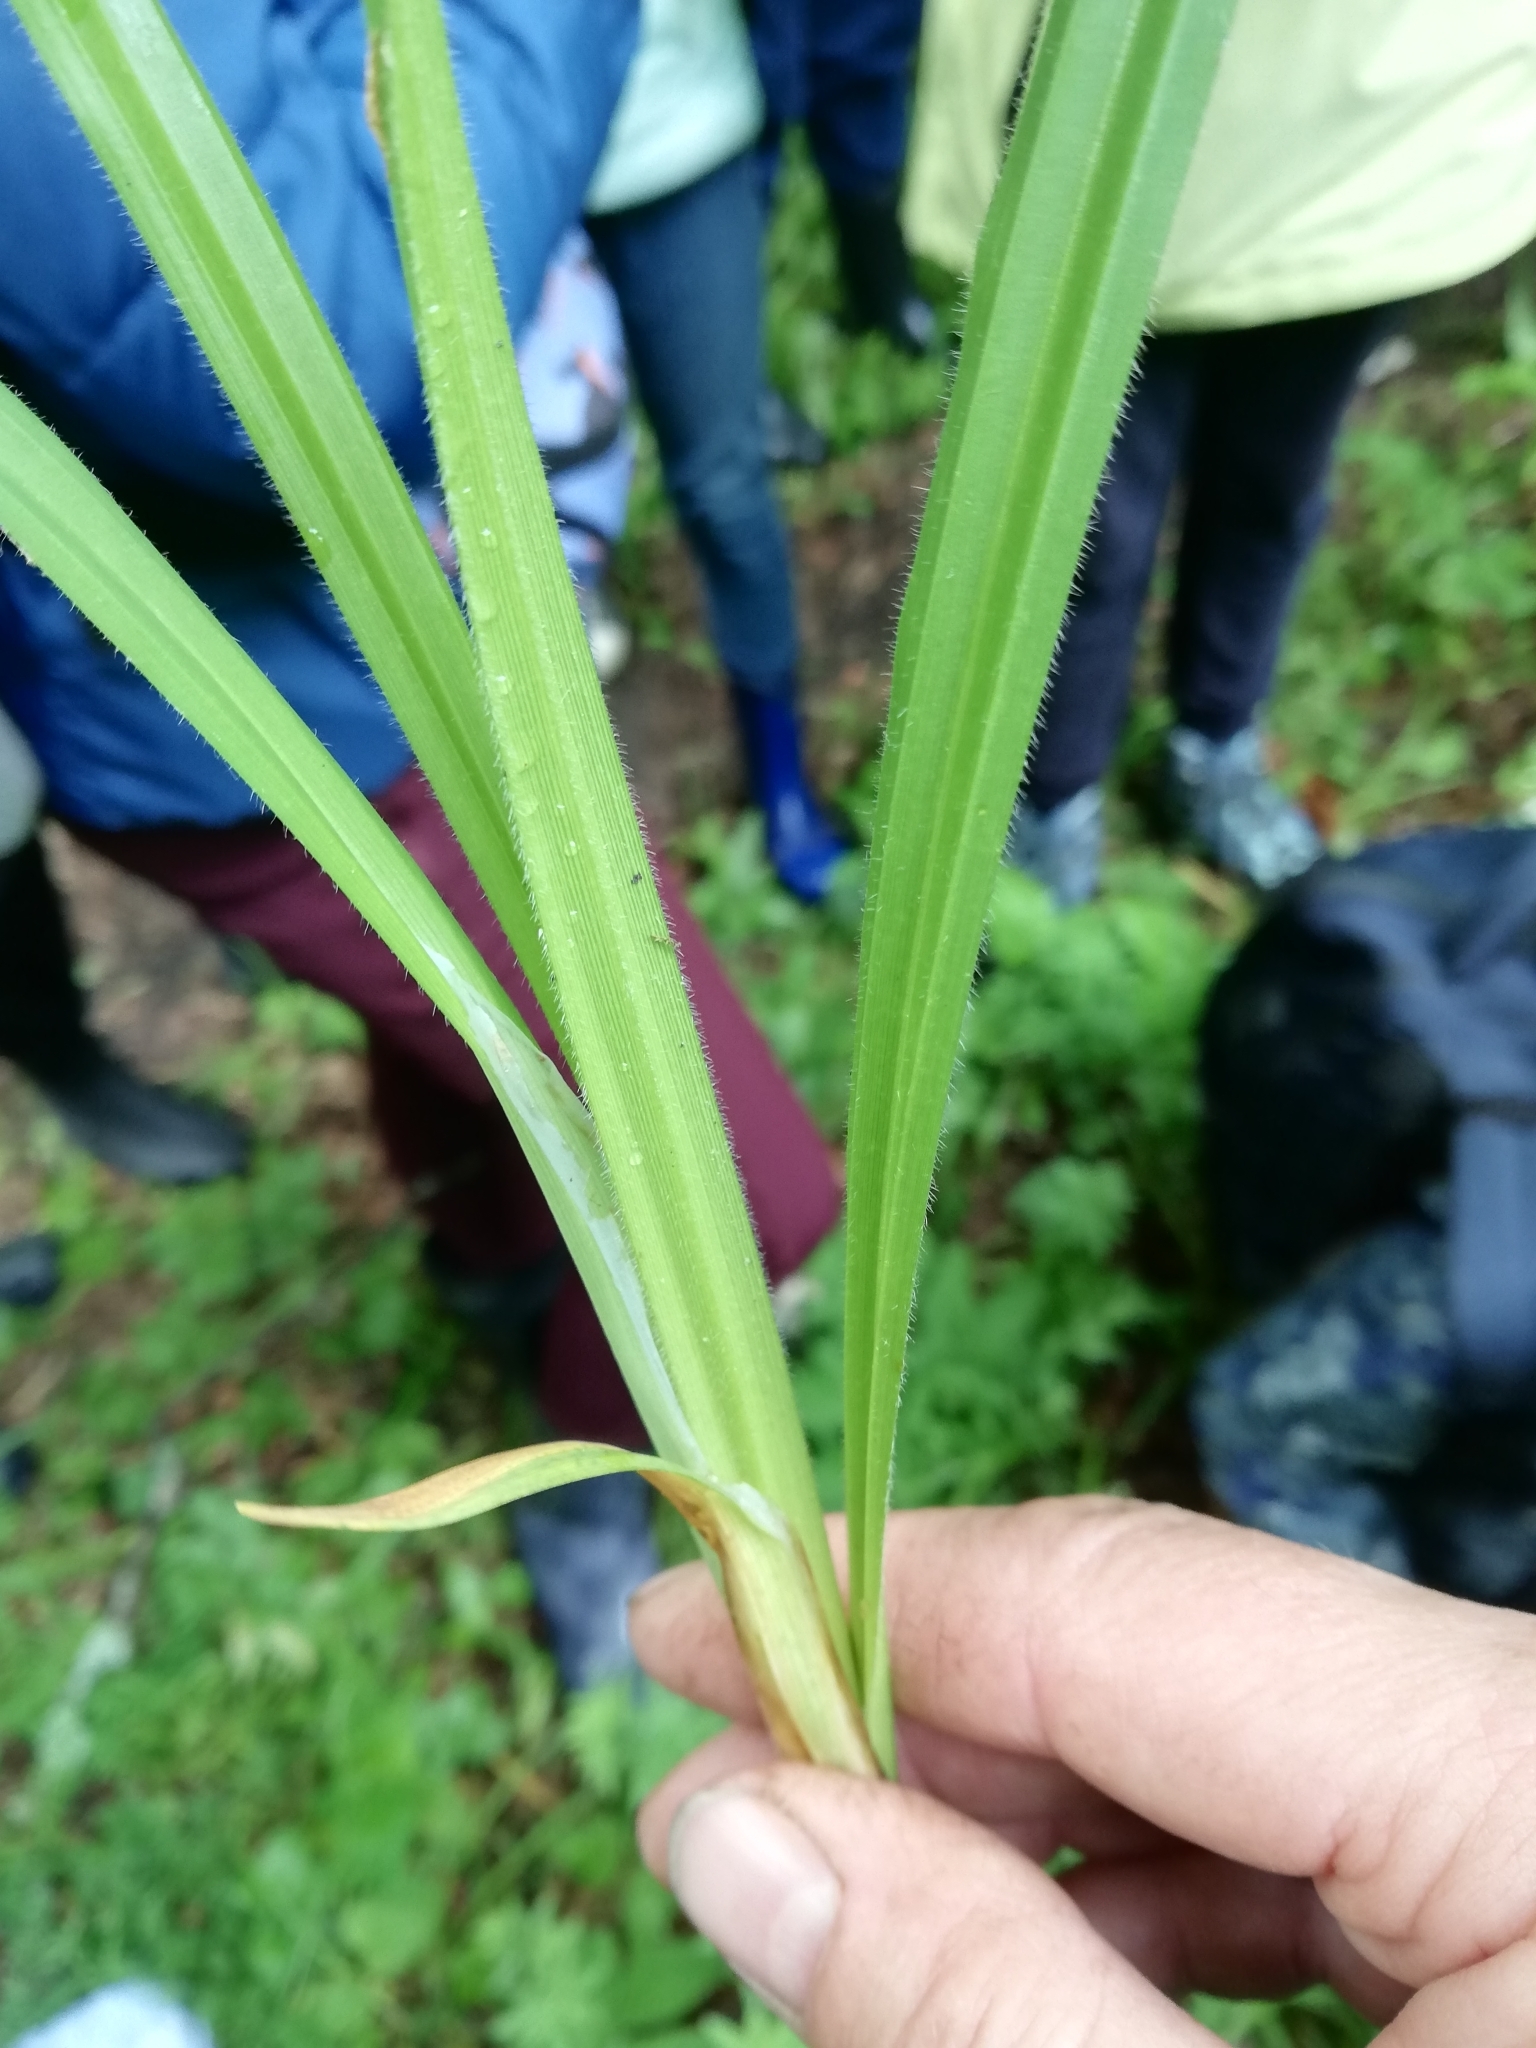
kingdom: Plantae
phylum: Tracheophyta
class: Liliopsida
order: Poales
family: Cyperaceae
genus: Carex
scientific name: Carex pilosa
